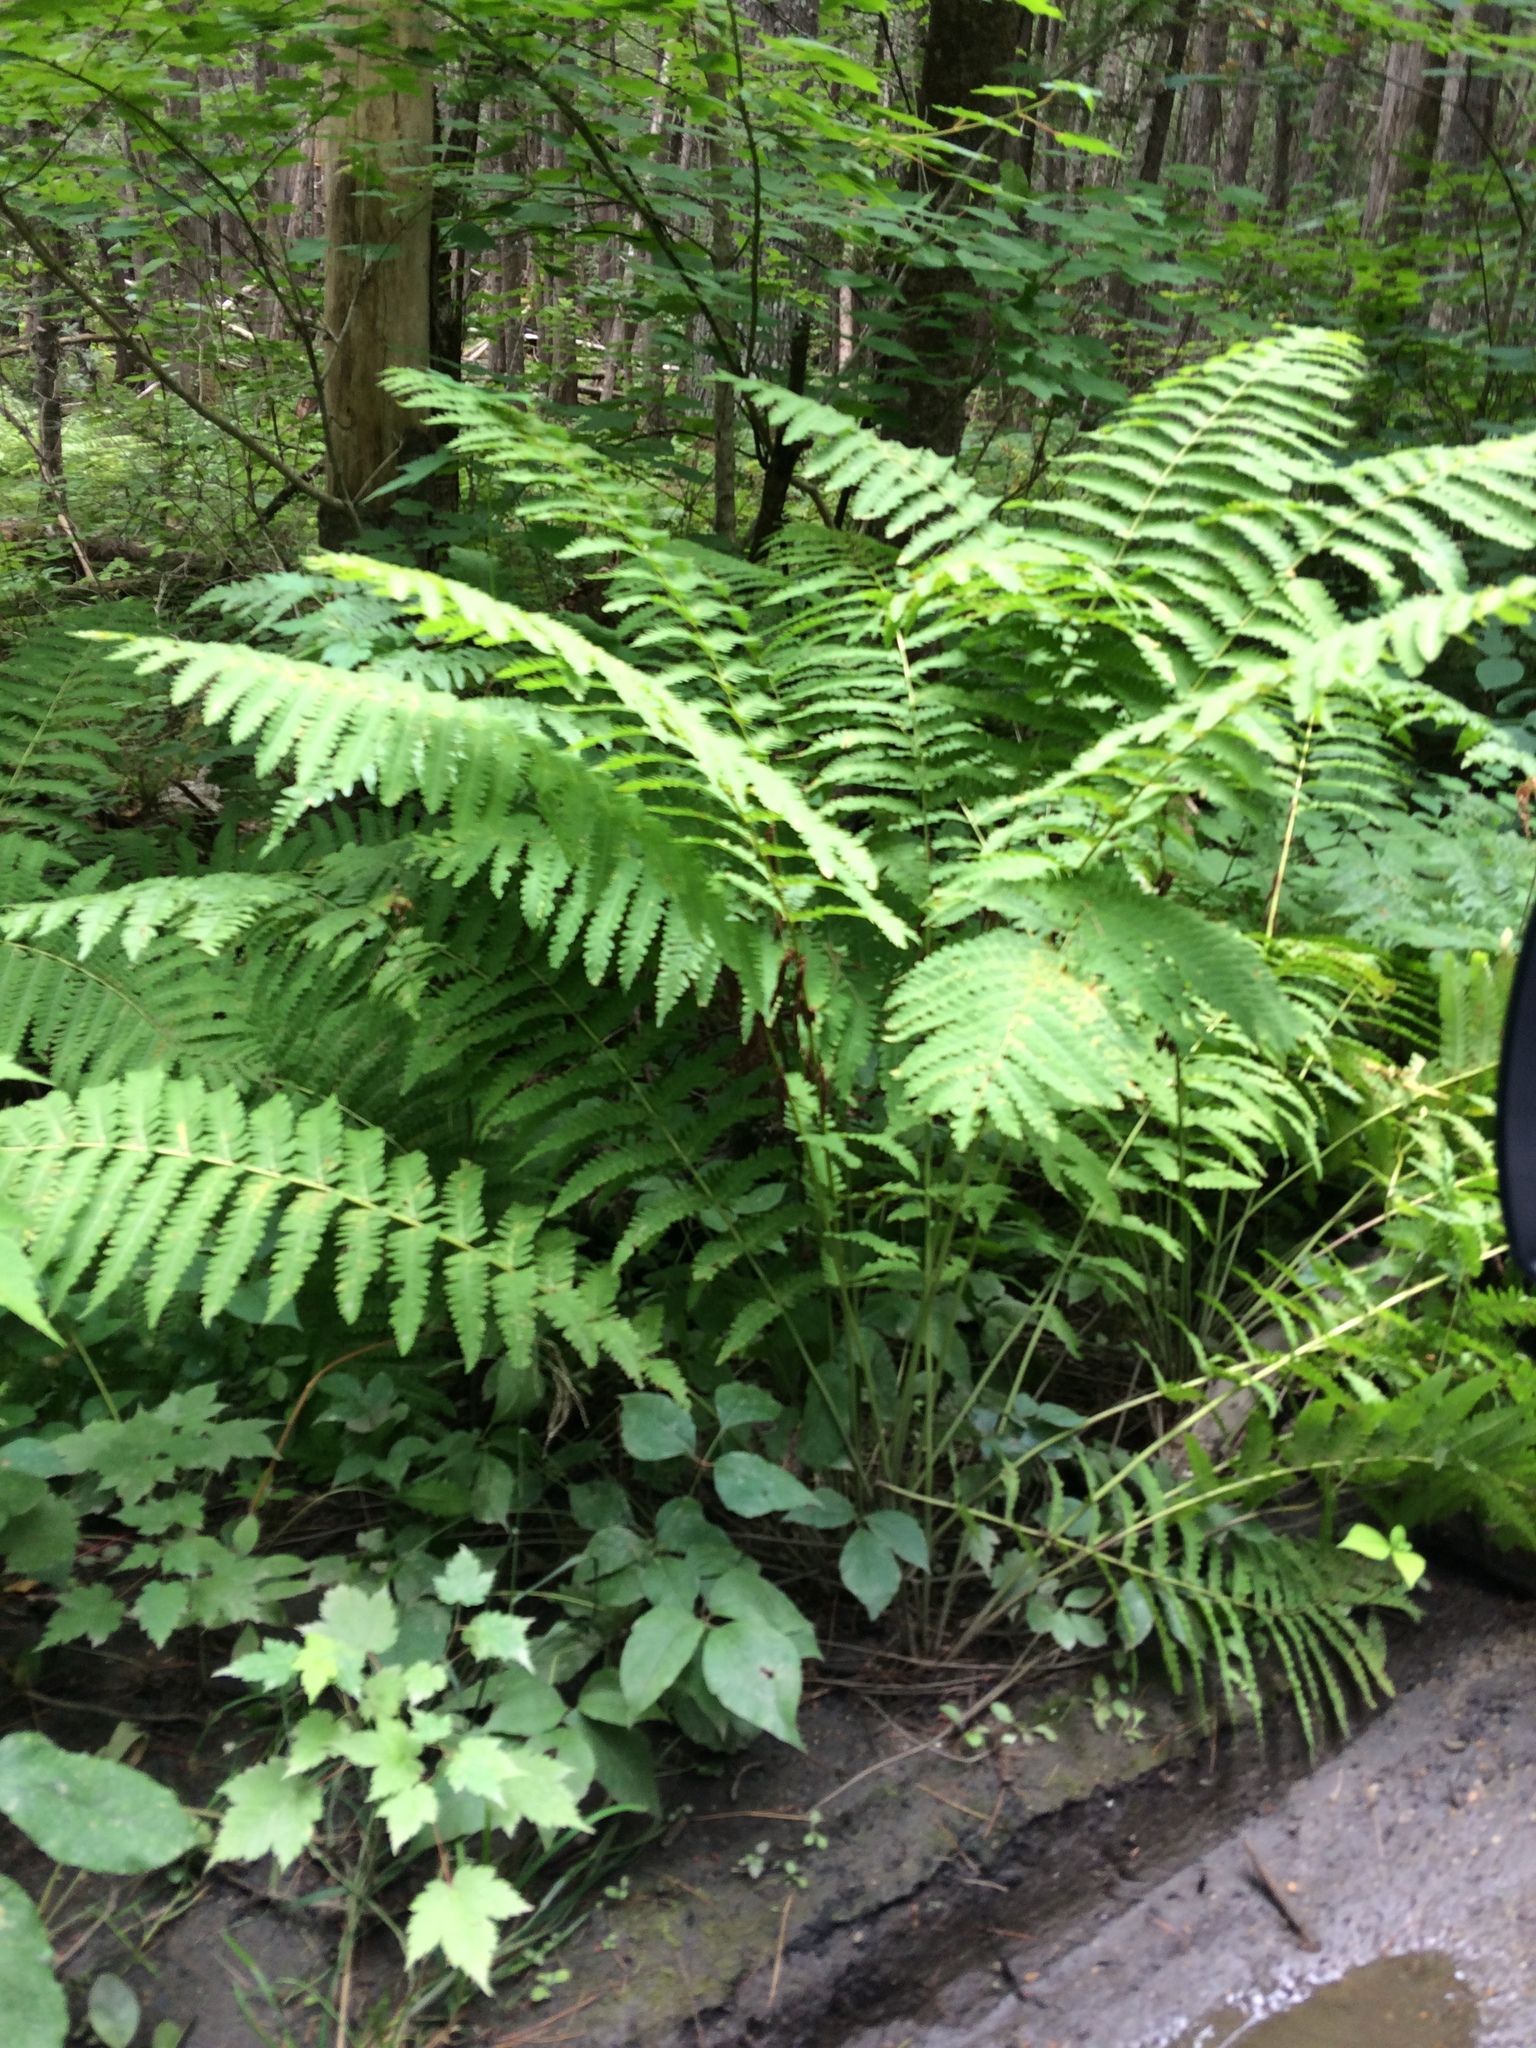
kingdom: Plantae
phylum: Tracheophyta
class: Polypodiopsida
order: Osmundales
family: Osmundaceae
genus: Claytosmunda
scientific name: Claytosmunda claytoniana
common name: Clayton's fern
